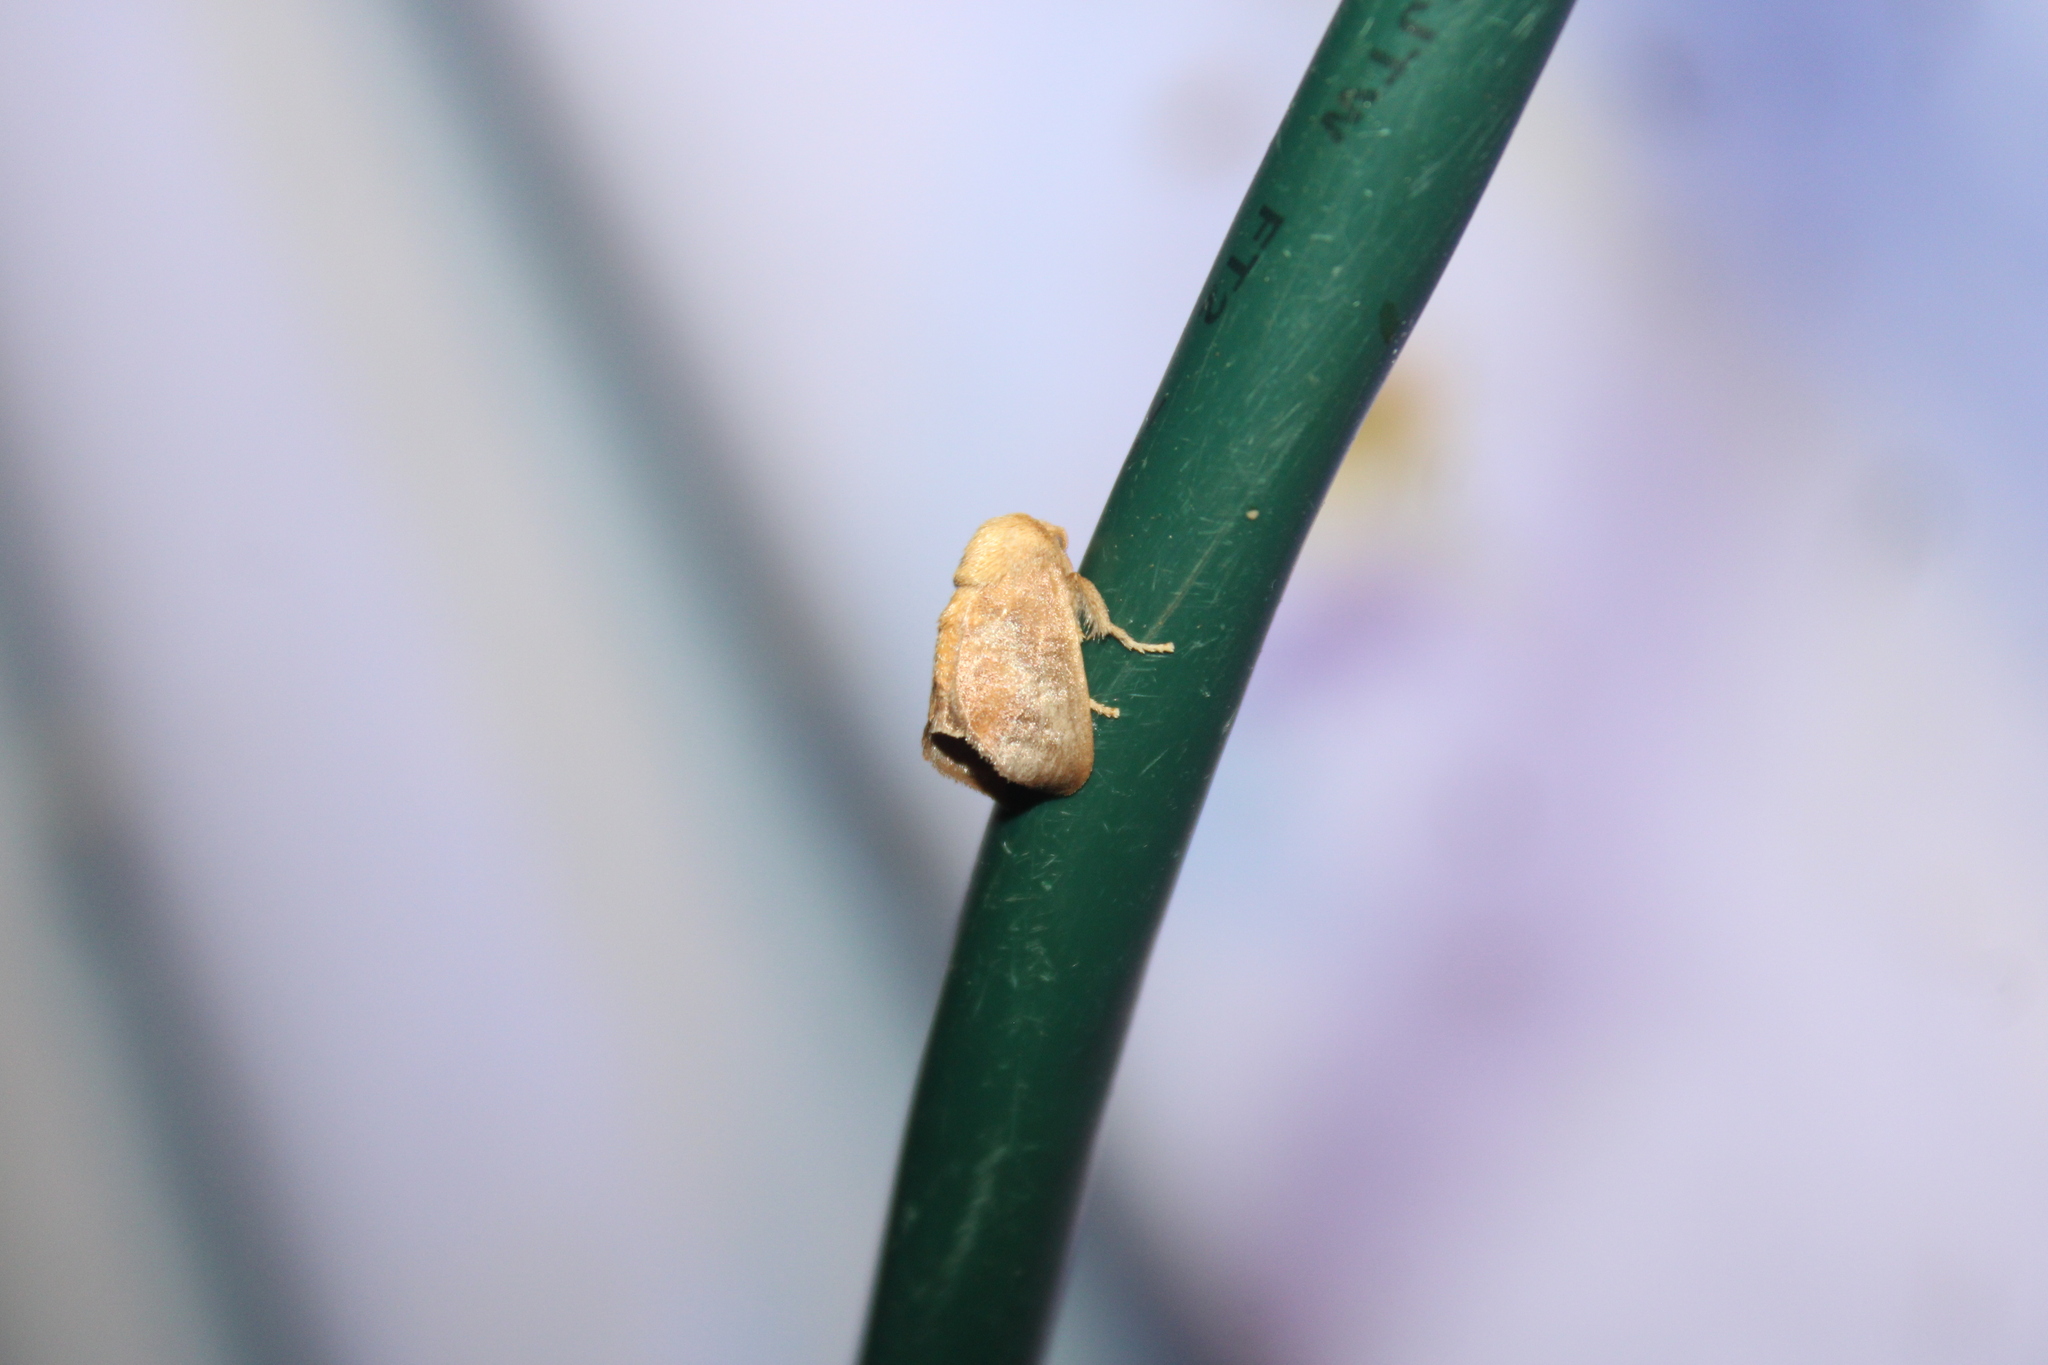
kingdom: Animalia
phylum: Arthropoda
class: Insecta
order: Lepidoptera
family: Limacodidae
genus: Isa
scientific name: Isa textula
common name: Crowned slug moth
